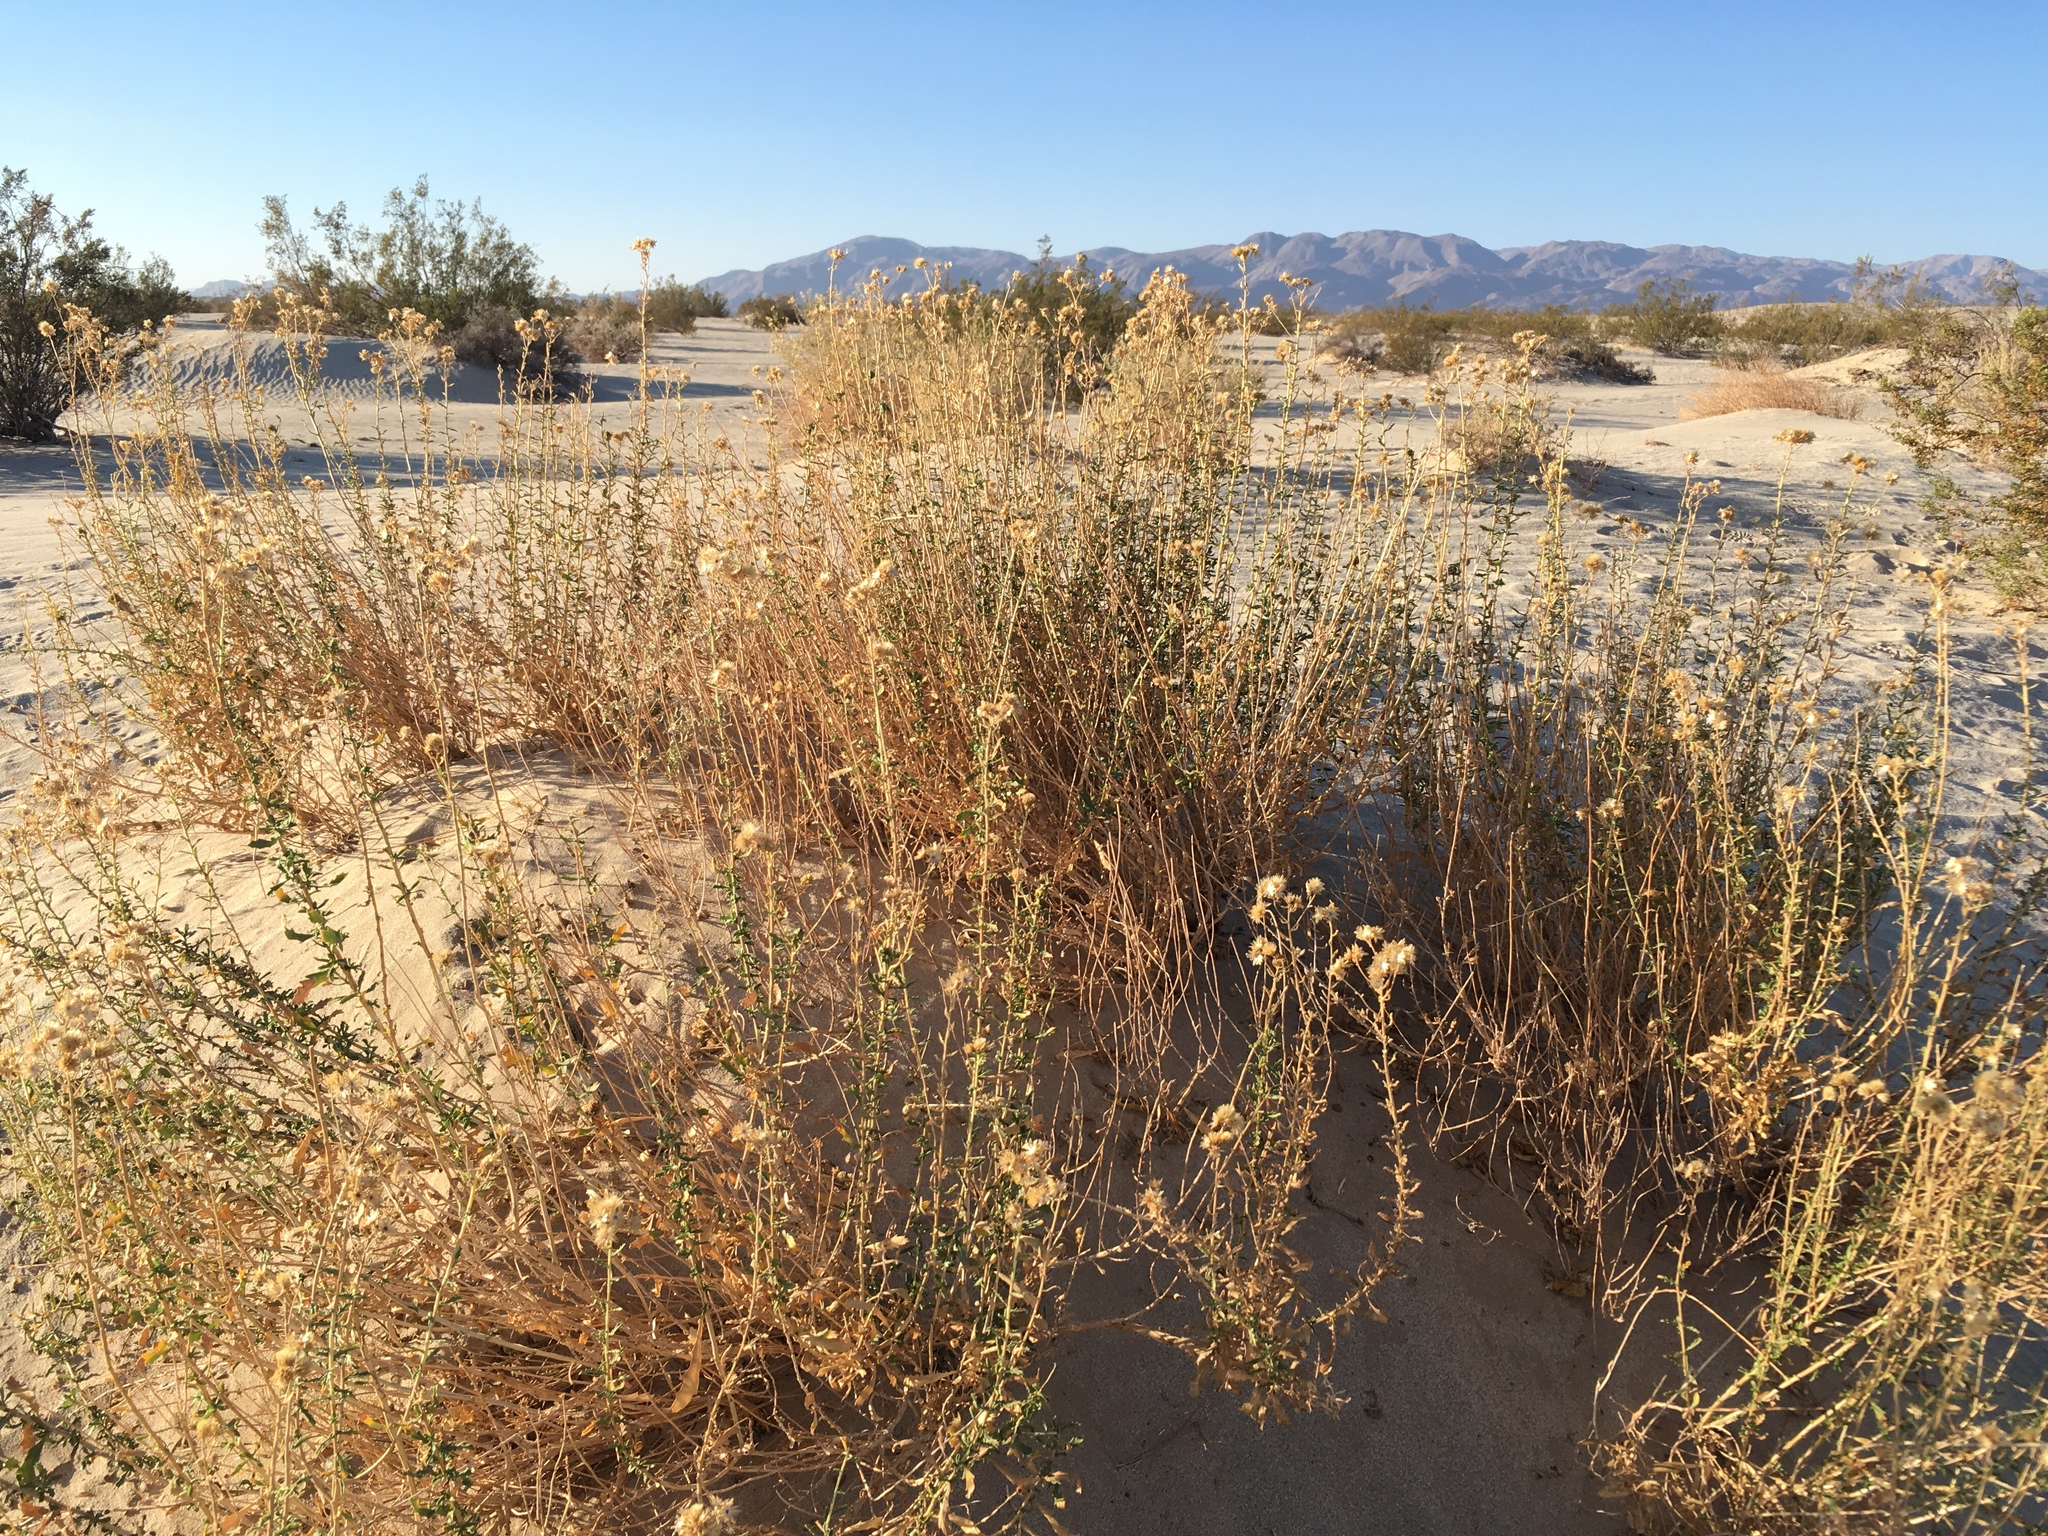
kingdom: Plantae
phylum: Tracheophyta
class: Magnoliopsida
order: Asterales
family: Asteraceae
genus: Isocoma
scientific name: Isocoma acradenia
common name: Alkali jimmyweed
